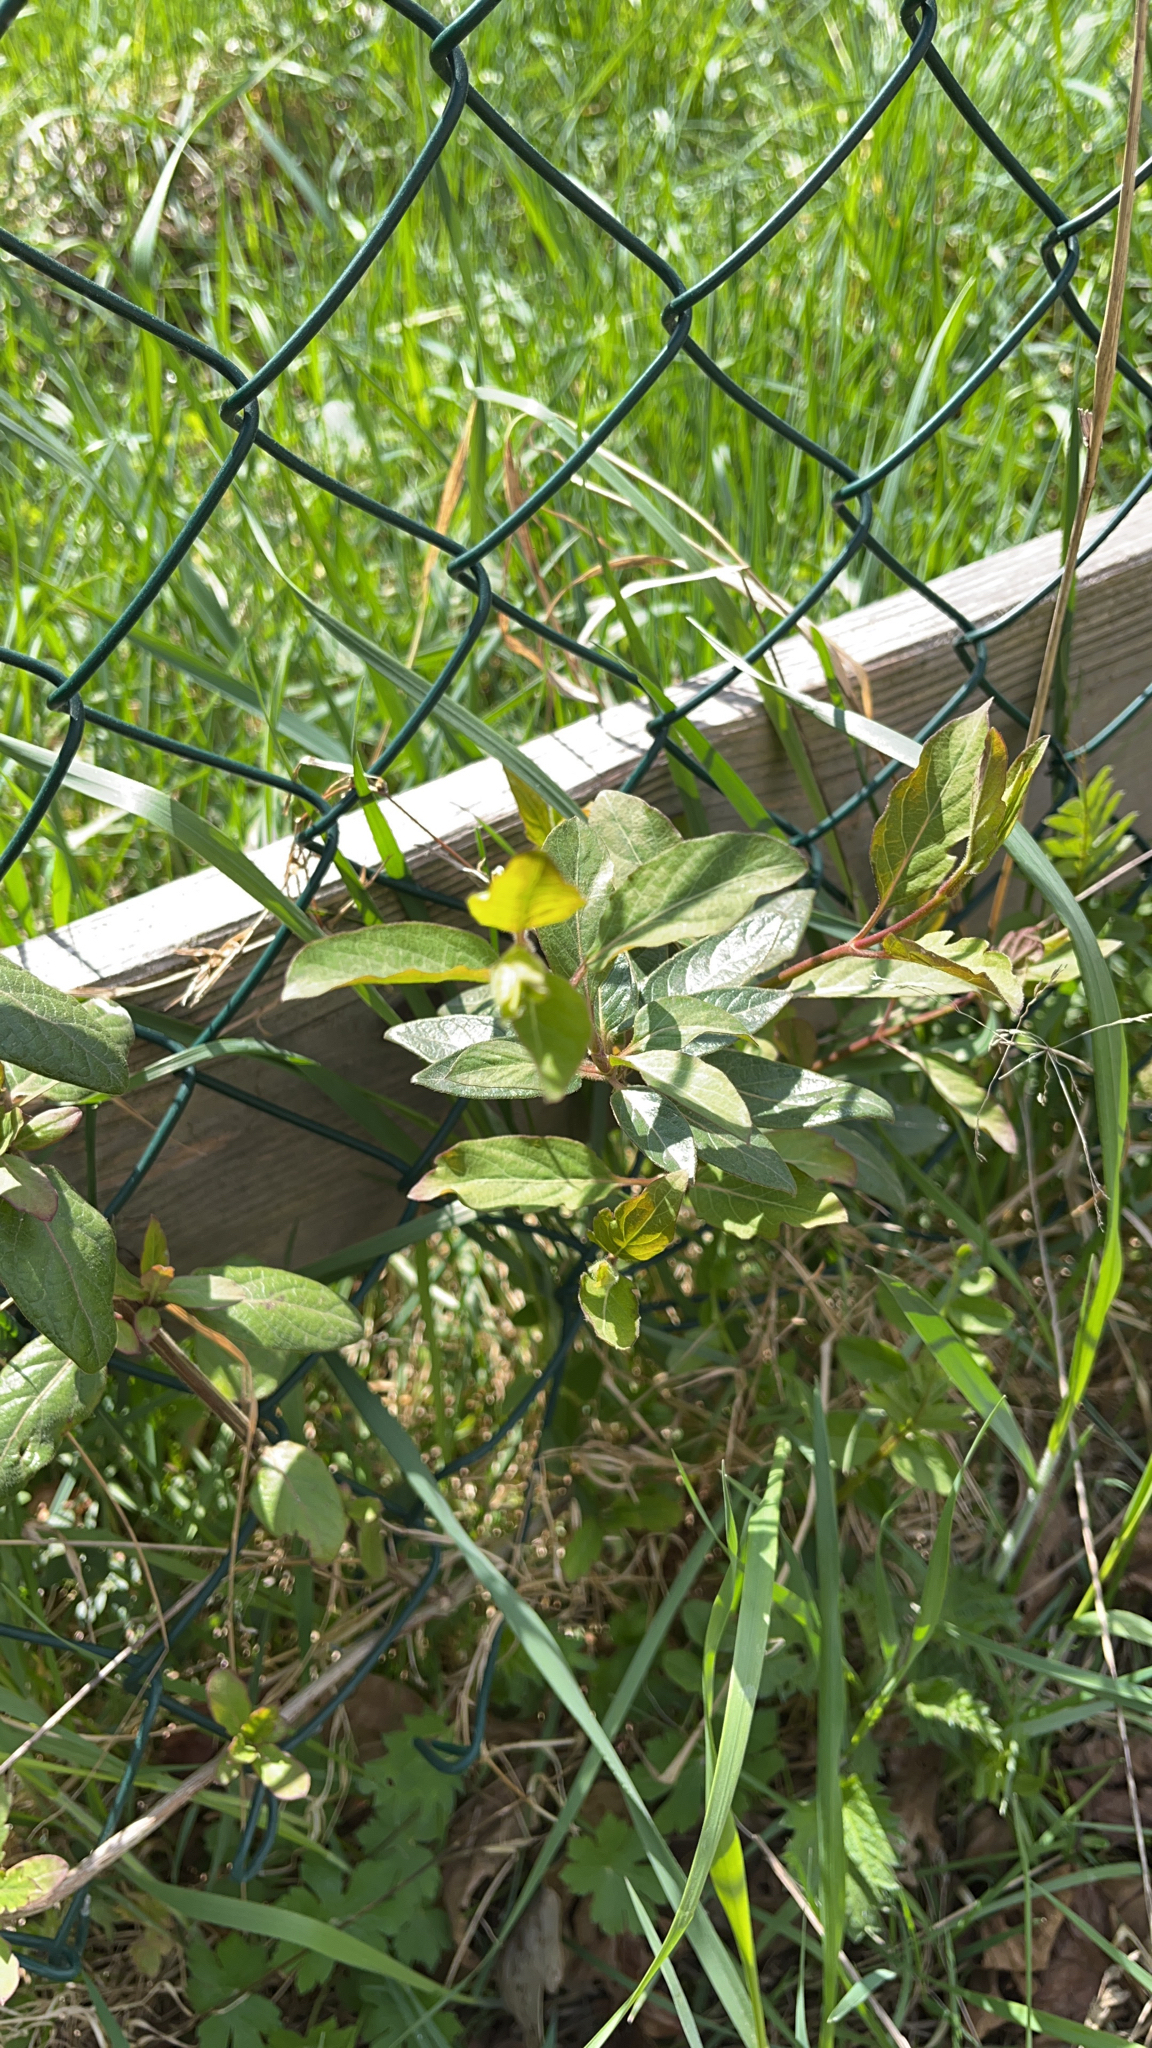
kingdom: Plantae
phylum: Tracheophyta
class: Magnoliopsida
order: Dipsacales
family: Caprifoliaceae
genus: Lonicera
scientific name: Lonicera japonica
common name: Japanese honeysuckle
